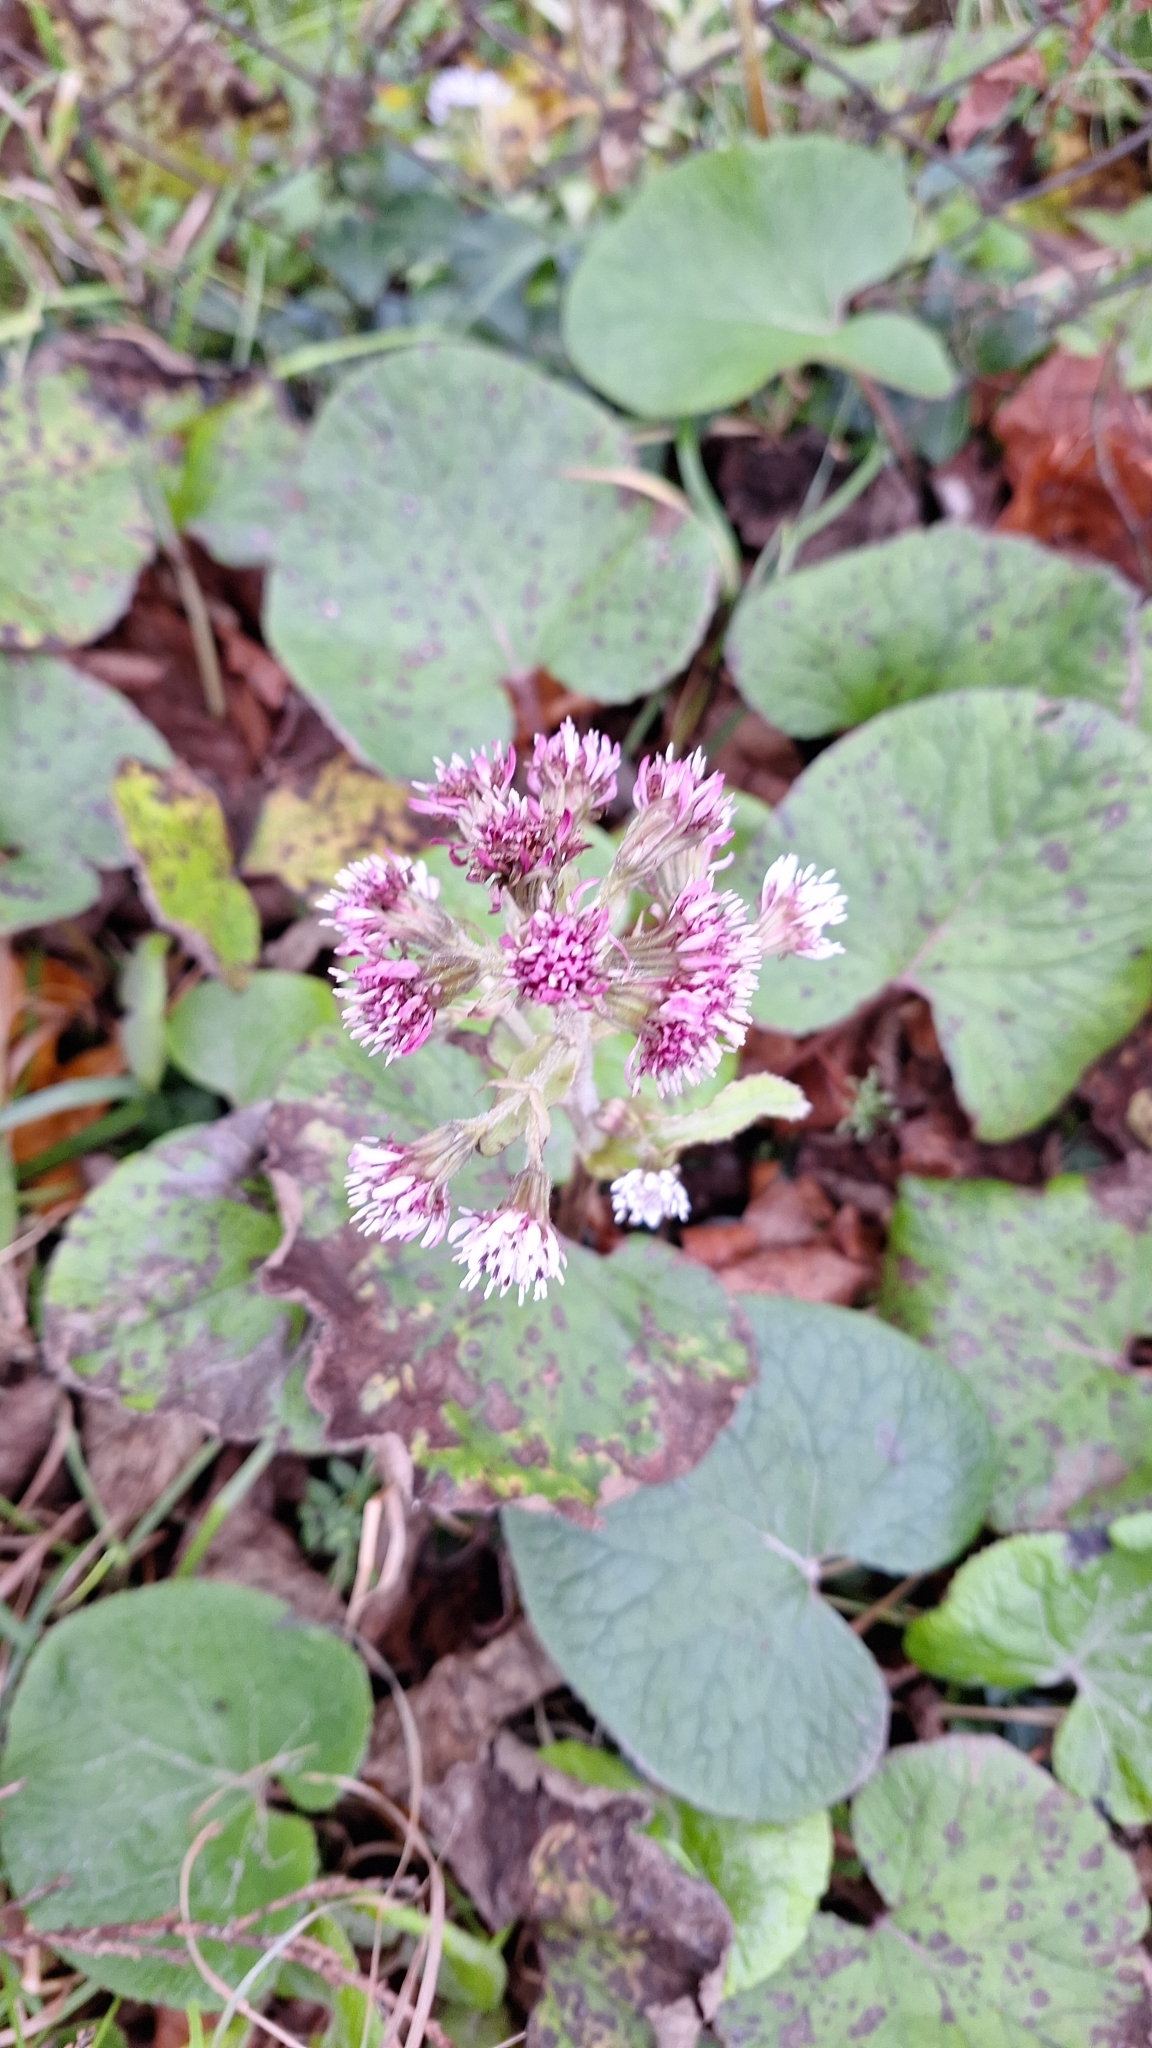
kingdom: Plantae
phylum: Tracheophyta
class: Magnoliopsida
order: Asterales
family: Asteraceae
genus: Petasites
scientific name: Petasites pyrenaicus
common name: Winter heliotrope
